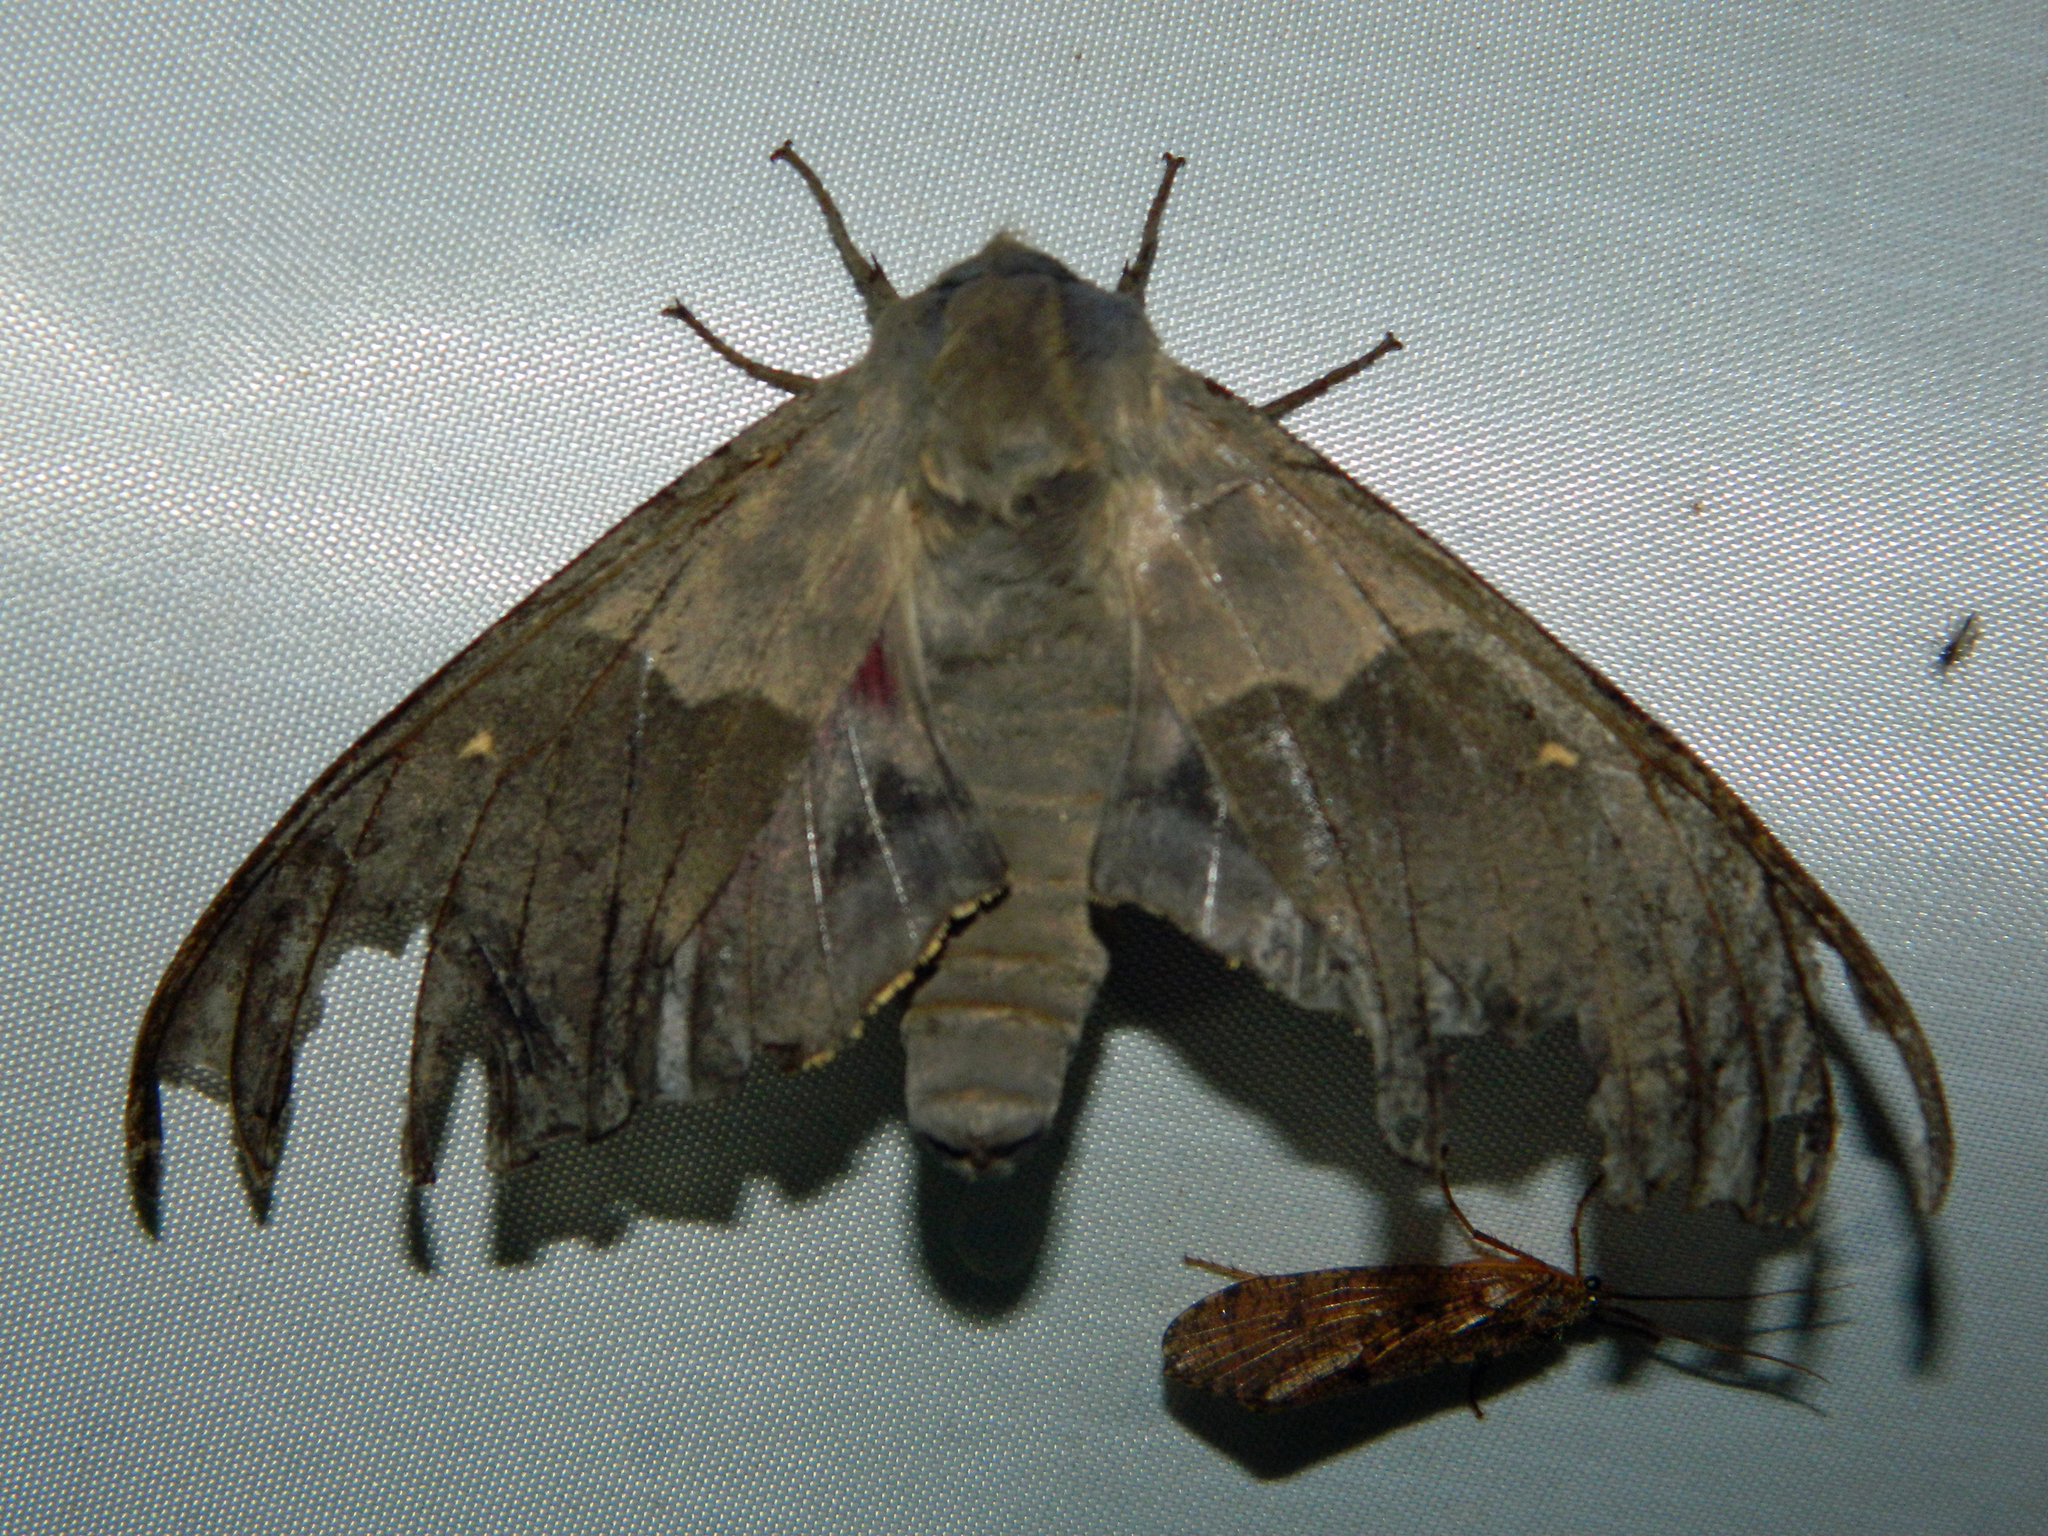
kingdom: Animalia
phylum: Arthropoda
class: Insecta
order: Lepidoptera
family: Sphingidae
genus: Pachysphinx
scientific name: Pachysphinx modesta
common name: Big poplar sphinx
